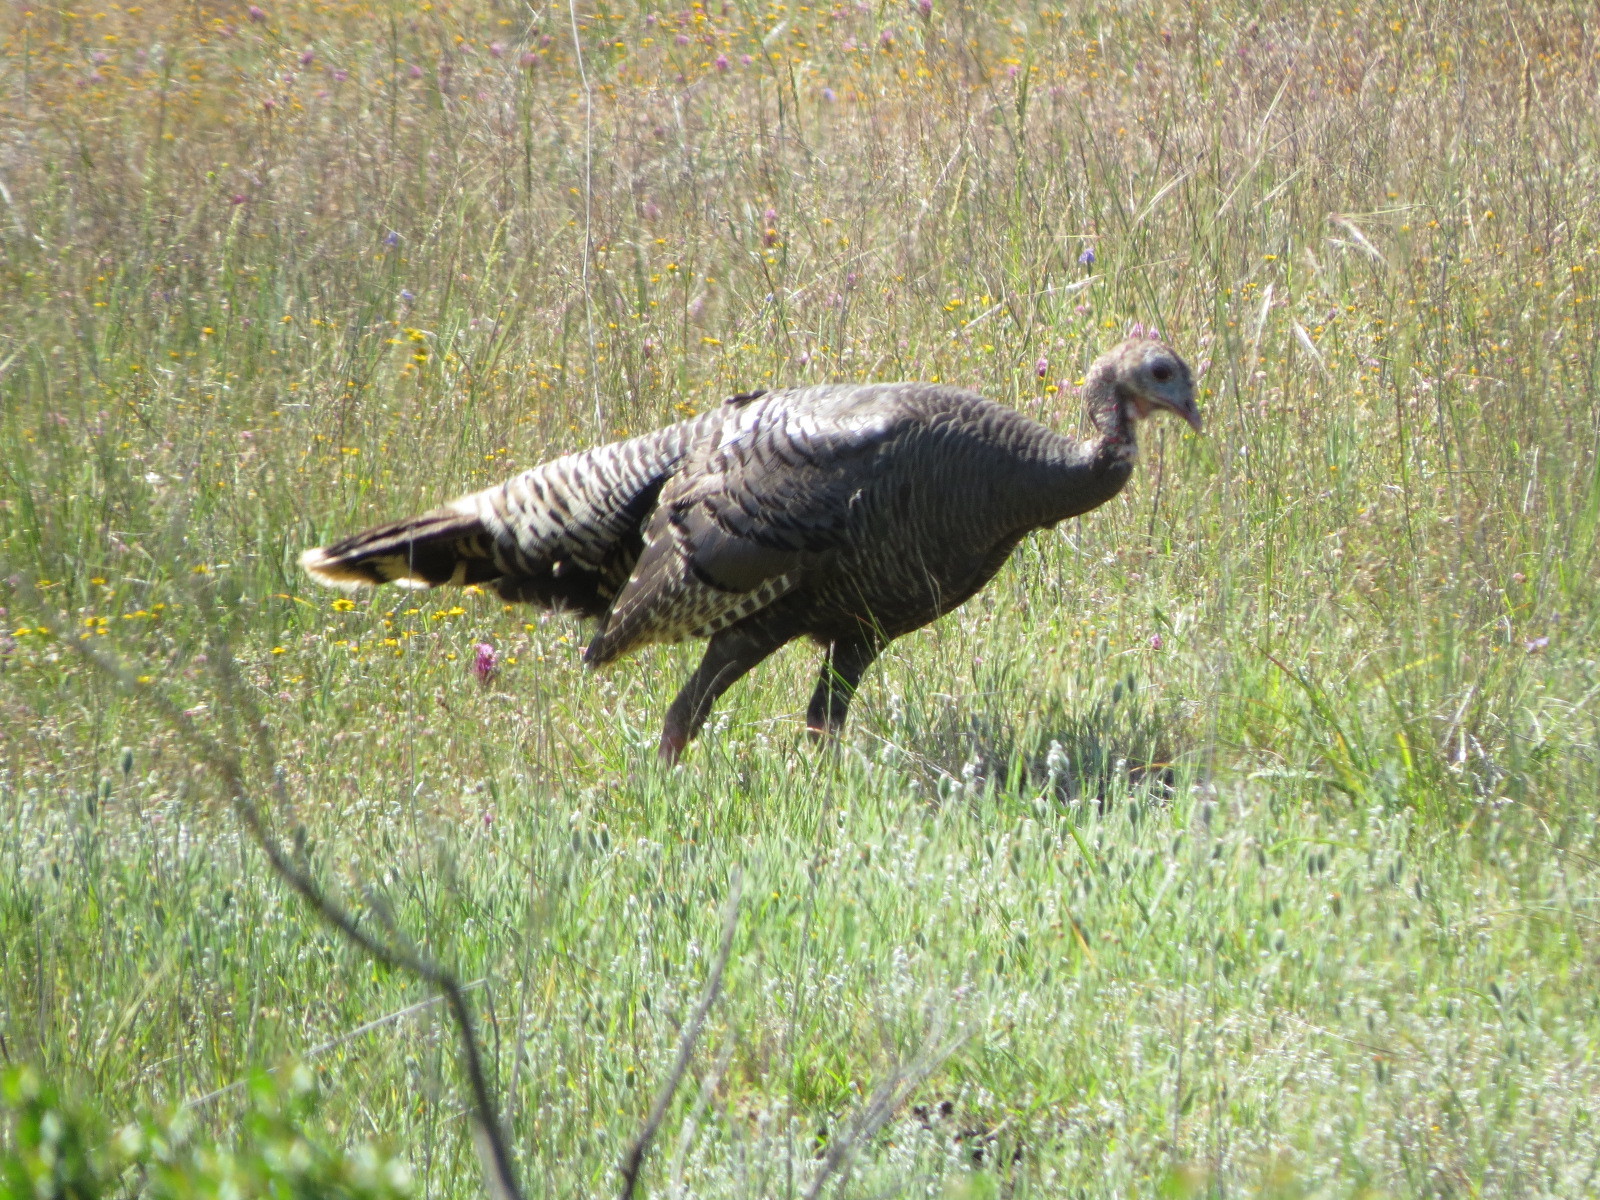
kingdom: Animalia
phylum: Chordata
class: Aves
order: Galliformes
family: Phasianidae
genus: Meleagris
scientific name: Meleagris gallopavo
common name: Wild turkey
